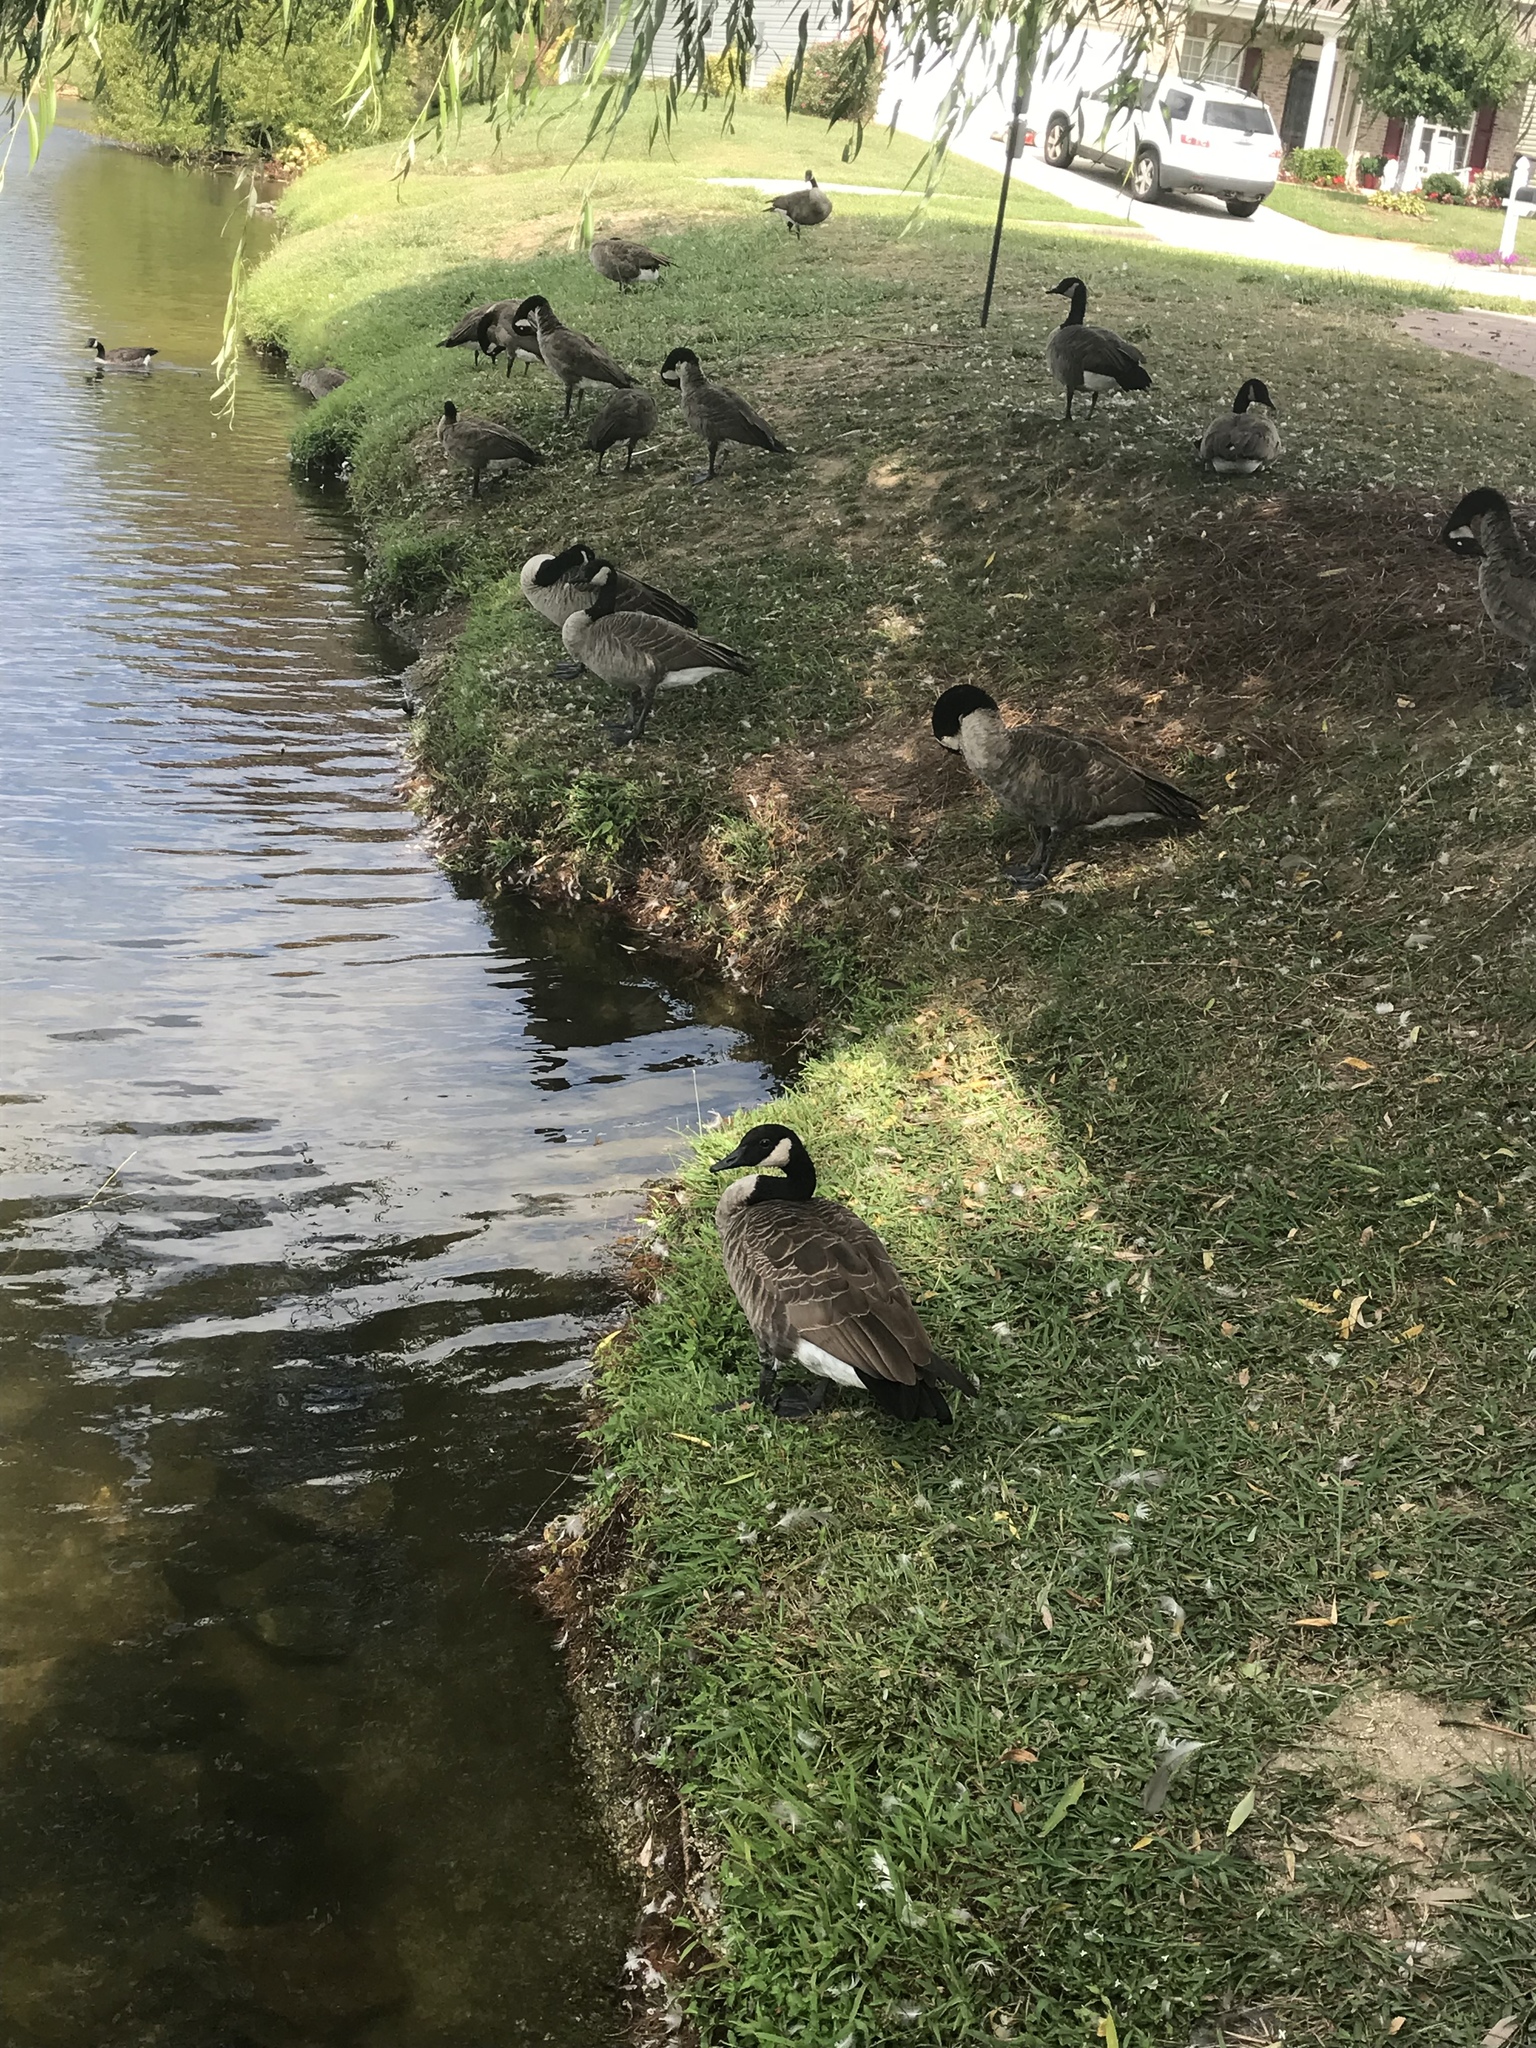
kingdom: Animalia
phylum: Chordata
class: Aves
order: Anseriformes
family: Anatidae
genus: Branta
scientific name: Branta canadensis
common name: Canada goose
